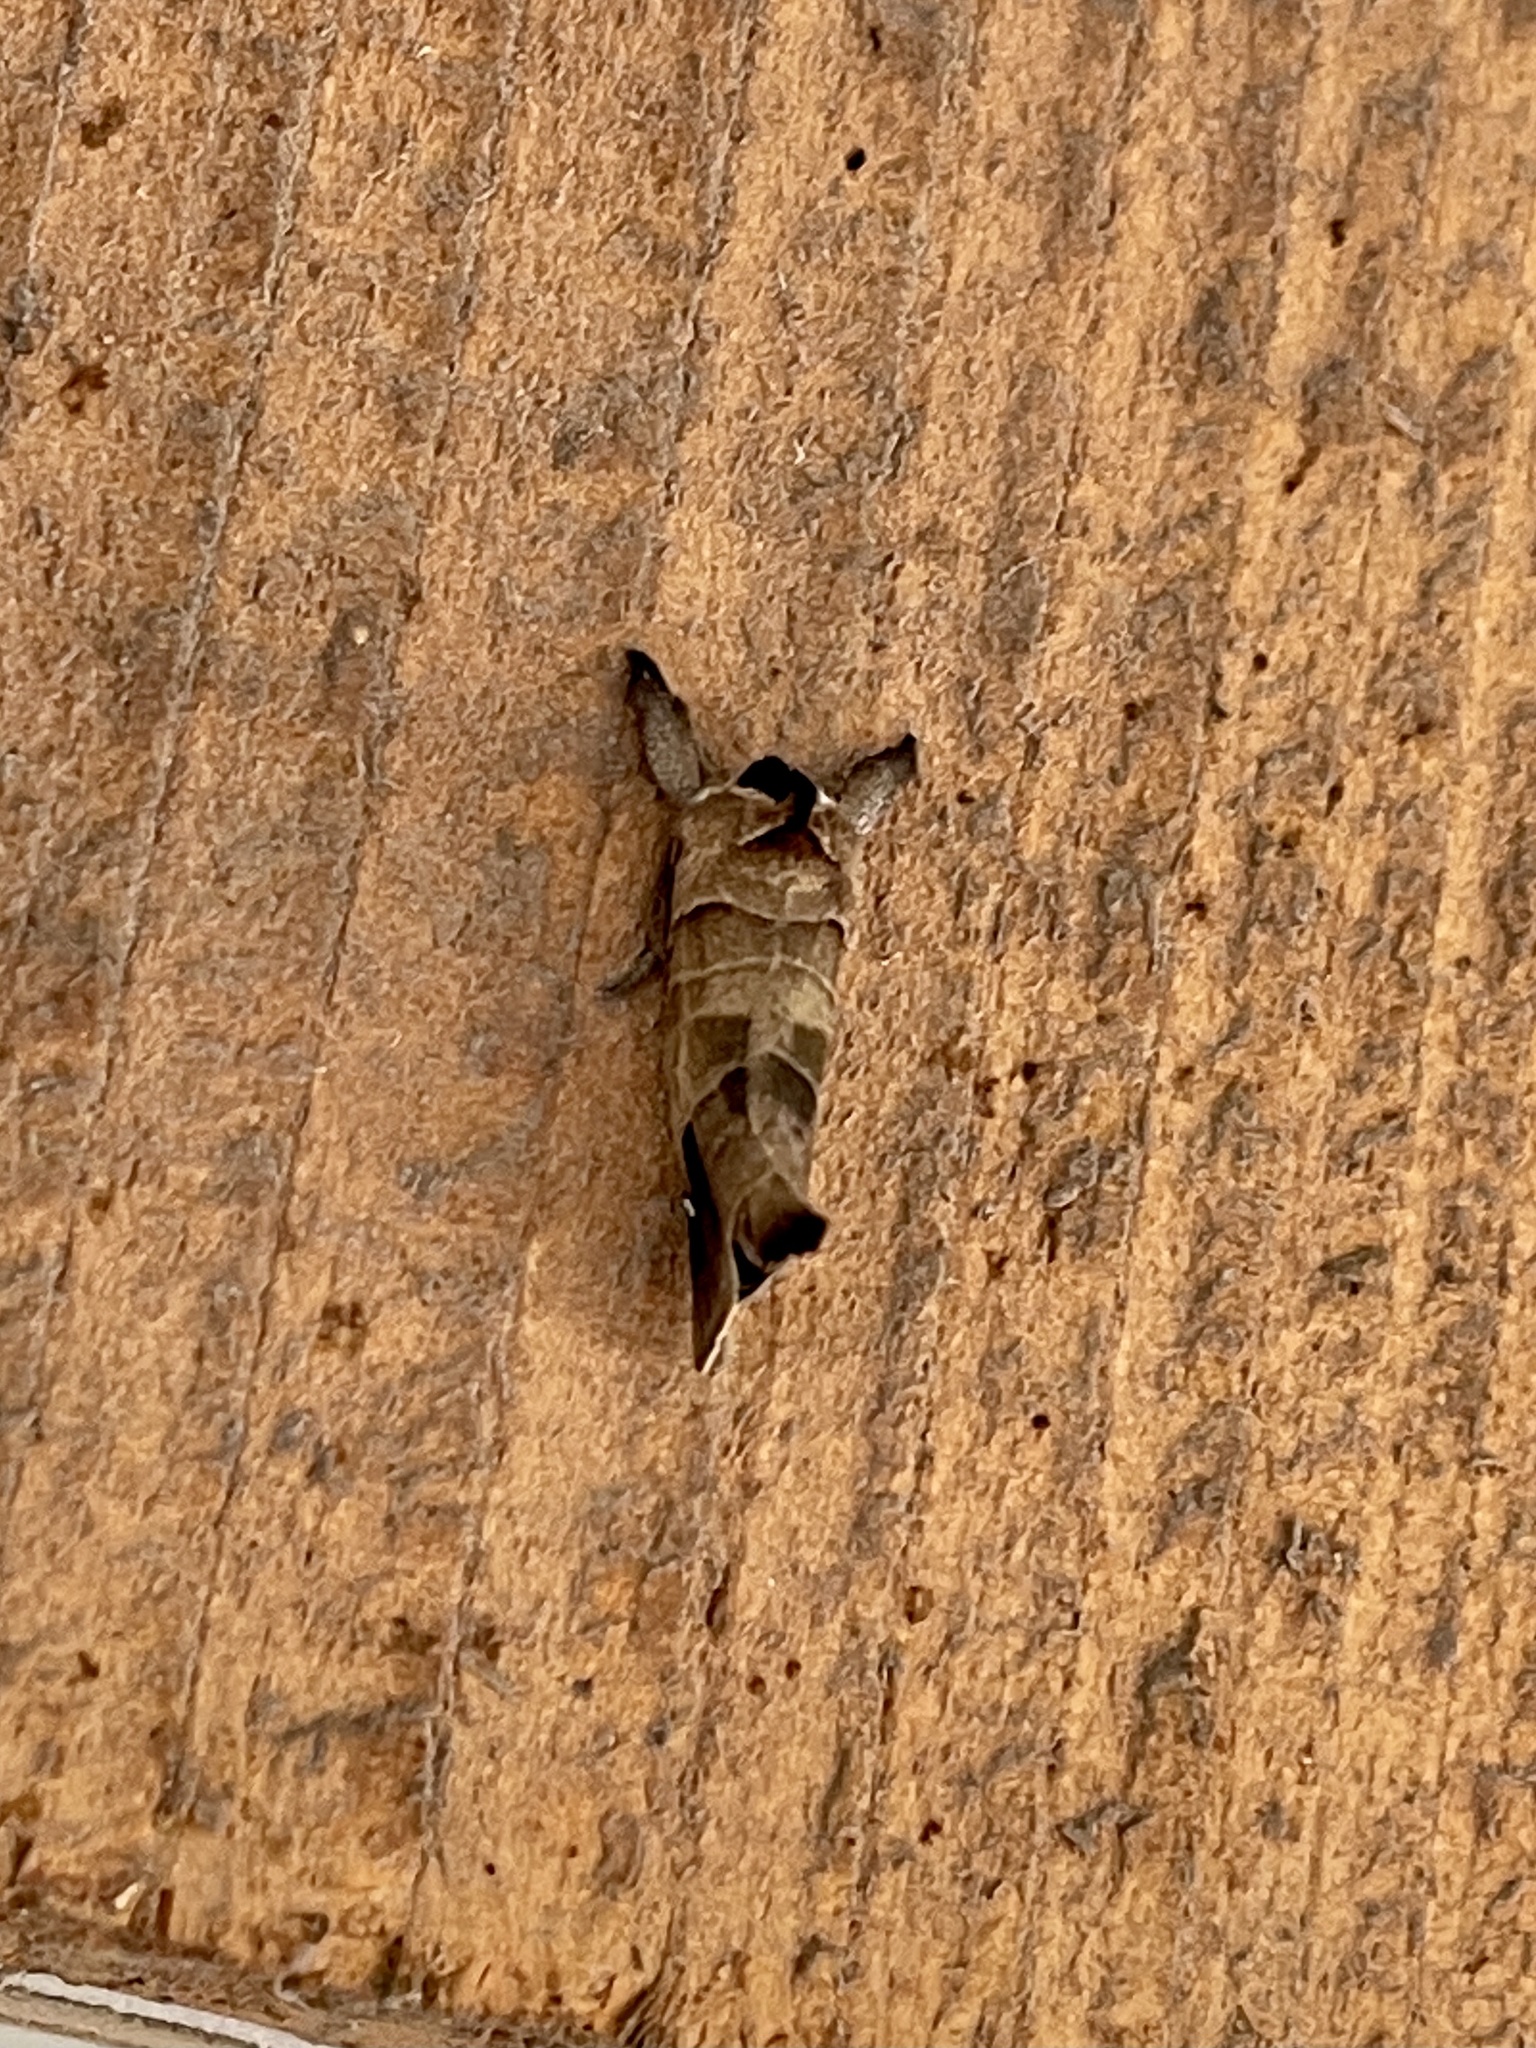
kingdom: Animalia
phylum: Arthropoda
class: Insecta
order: Lepidoptera
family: Notodontidae
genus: Clostera
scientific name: Clostera albosigma
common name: Sigmoid prominent
